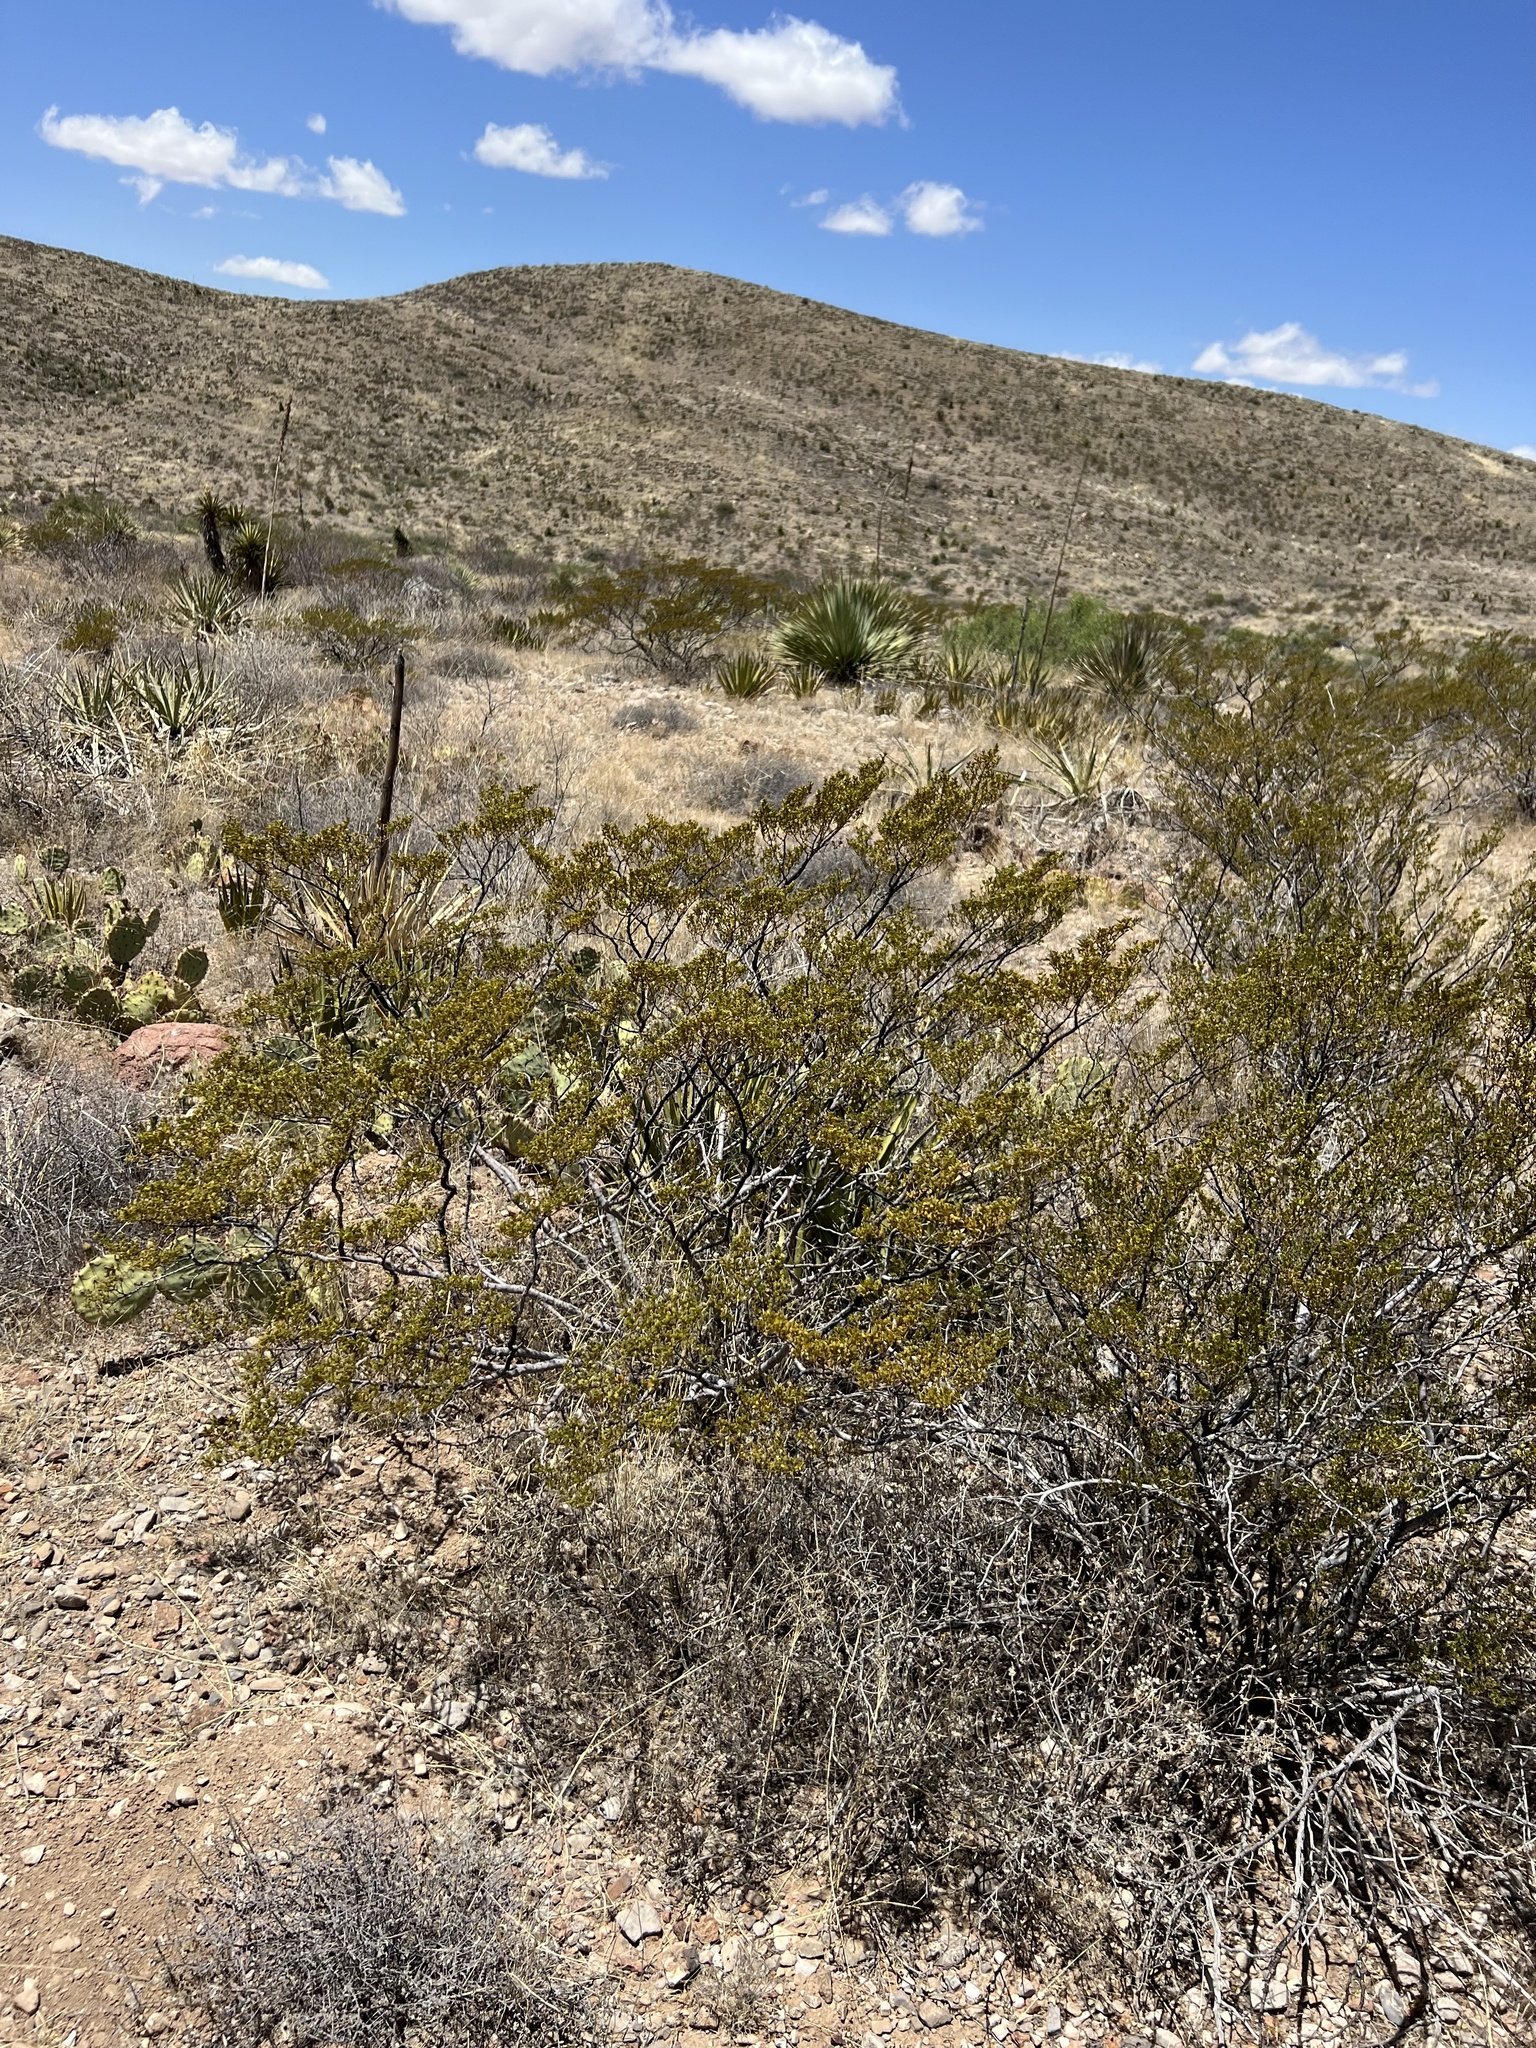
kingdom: Plantae
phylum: Tracheophyta
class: Magnoliopsida
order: Zygophyllales
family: Zygophyllaceae
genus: Larrea
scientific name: Larrea tridentata
